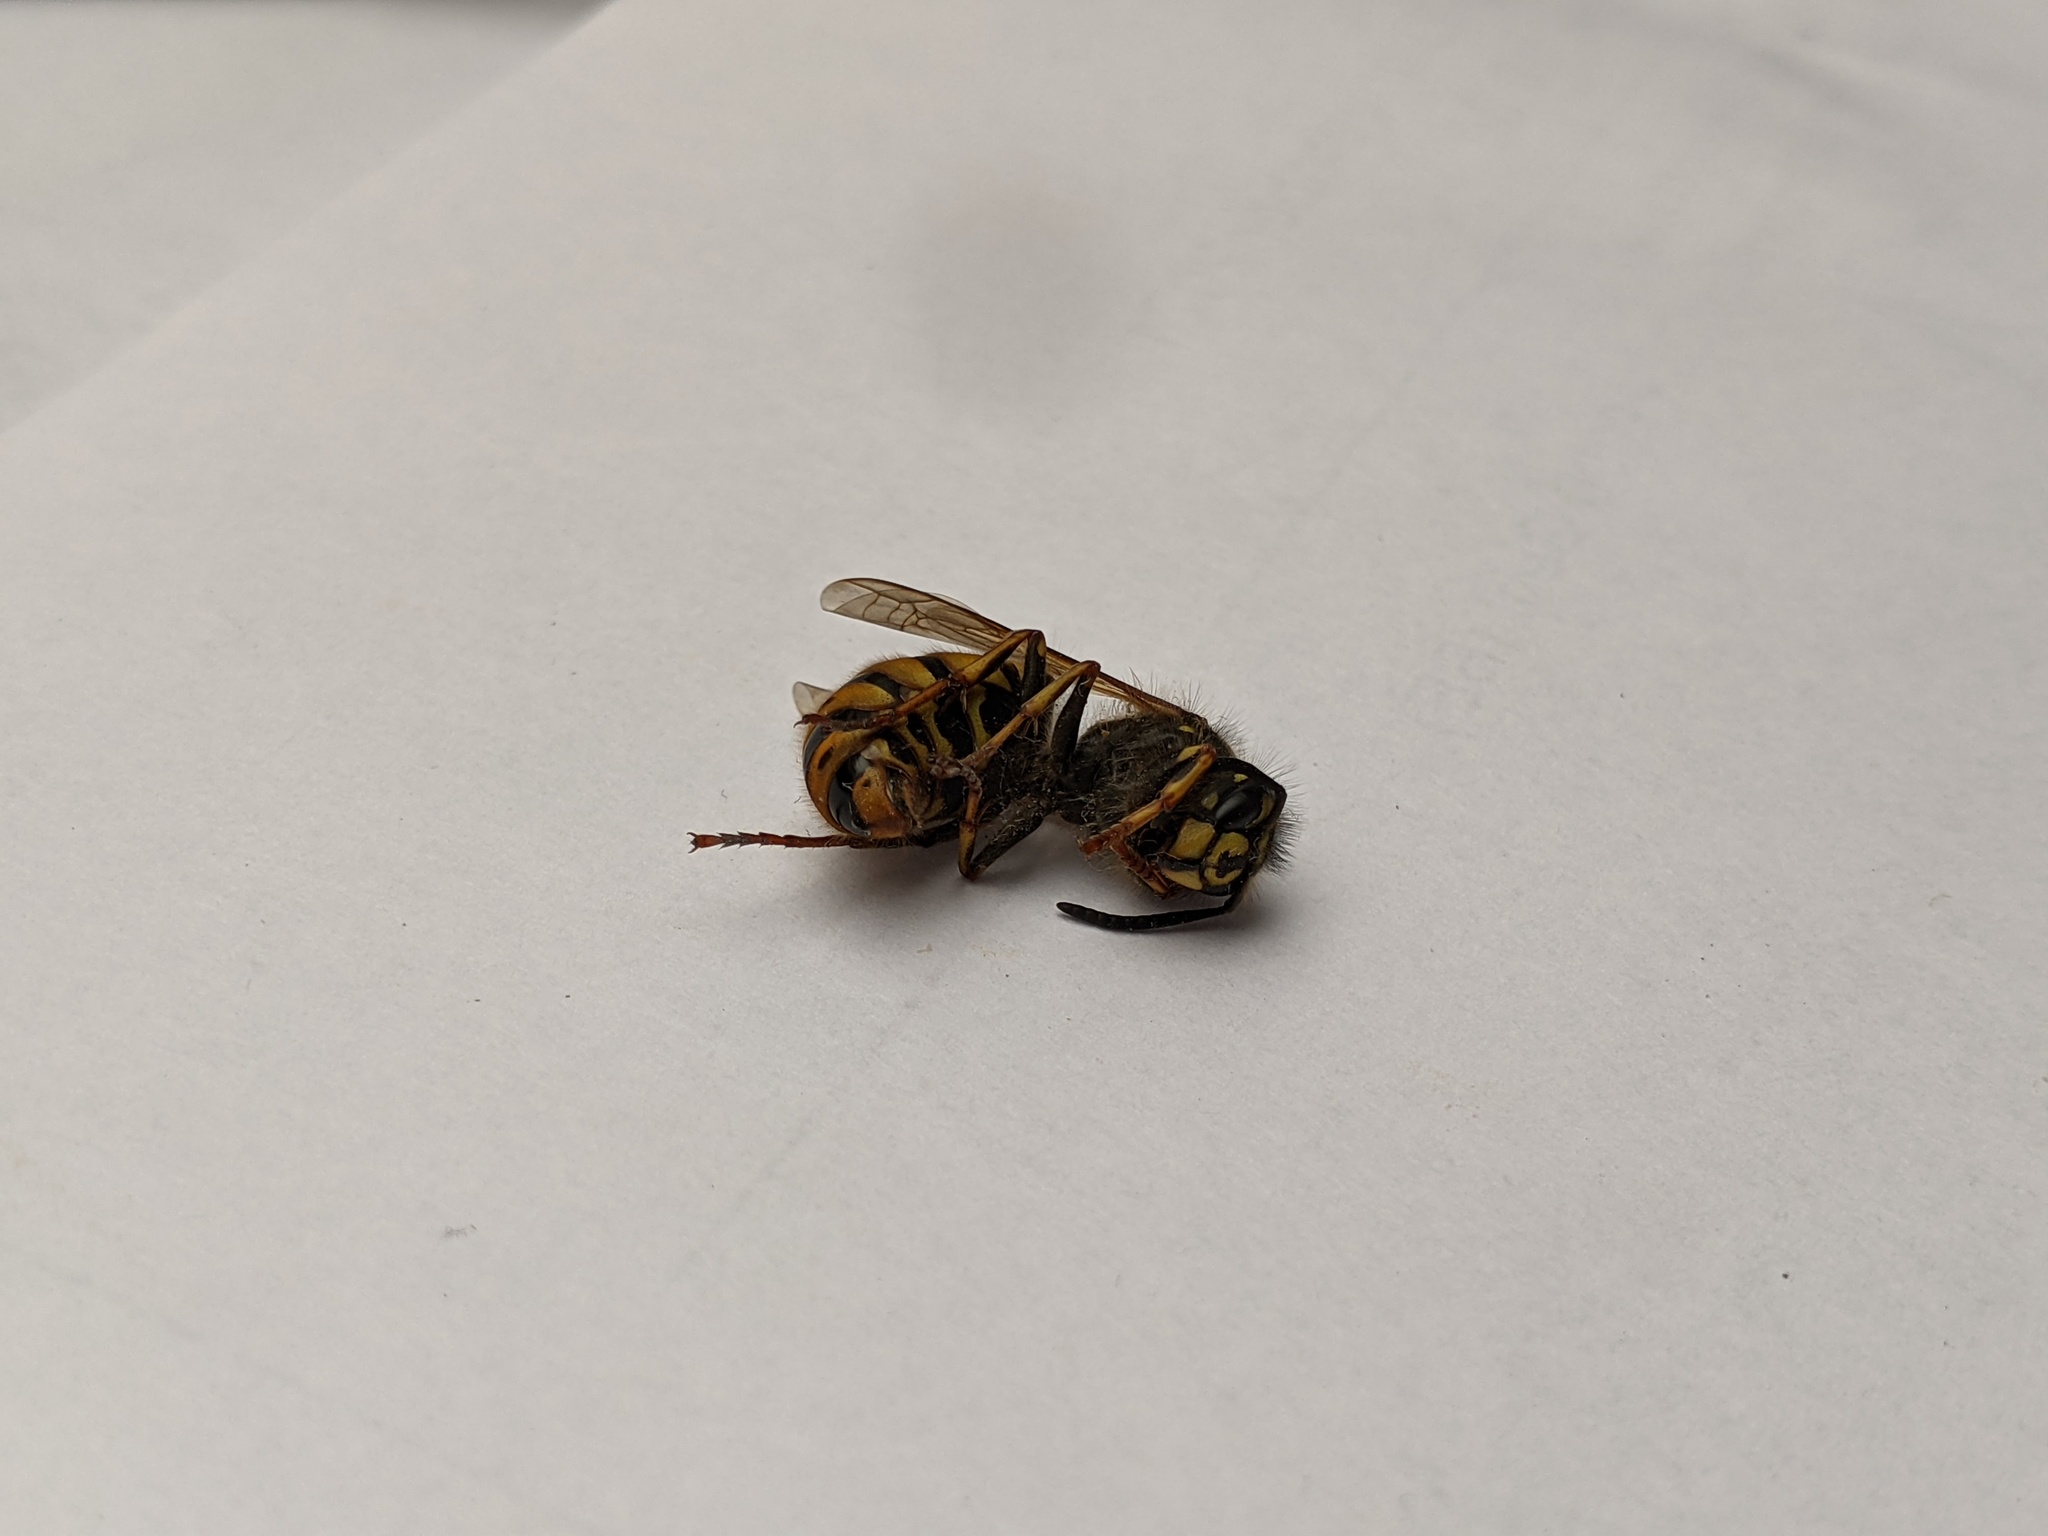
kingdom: Animalia
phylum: Arthropoda
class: Insecta
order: Hymenoptera
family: Vespidae
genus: Vespula
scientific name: Vespula vulgaris
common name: Common wasp
